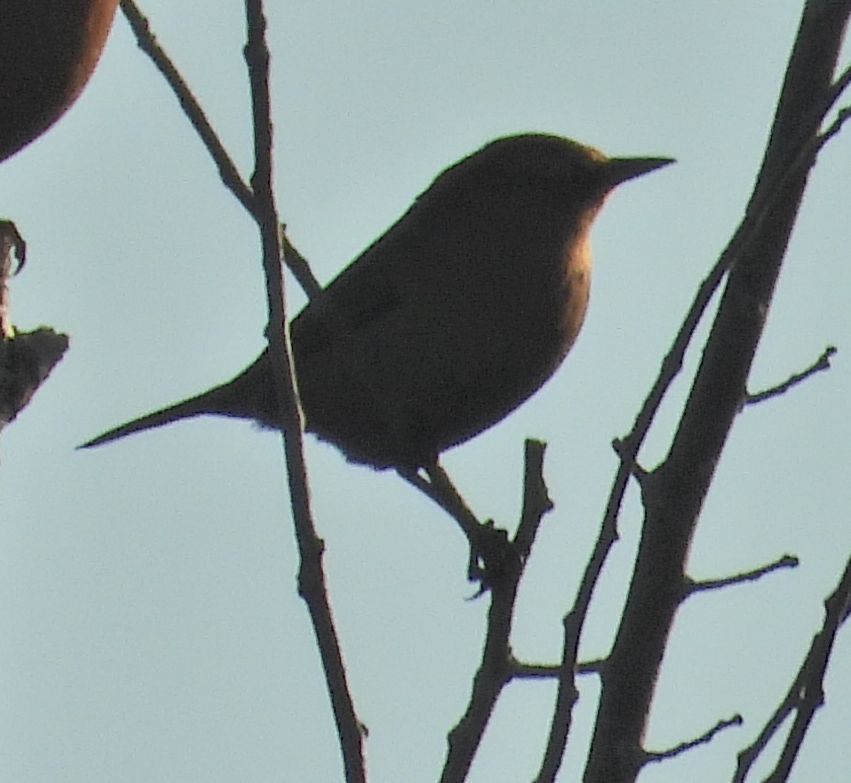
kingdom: Animalia
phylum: Chordata
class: Aves
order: Passeriformes
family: Icteridae
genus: Euphagus
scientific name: Euphagus carolinus
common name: Rusty blackbird
